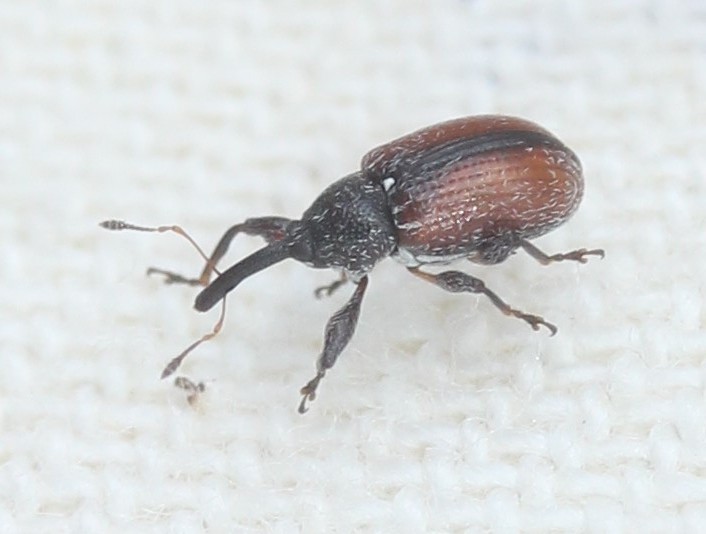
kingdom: Animalia
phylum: Arthropoda
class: Insecta
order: Coleoptera
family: Curculionidae
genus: Anthonomus
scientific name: Anthonomus suturalis
